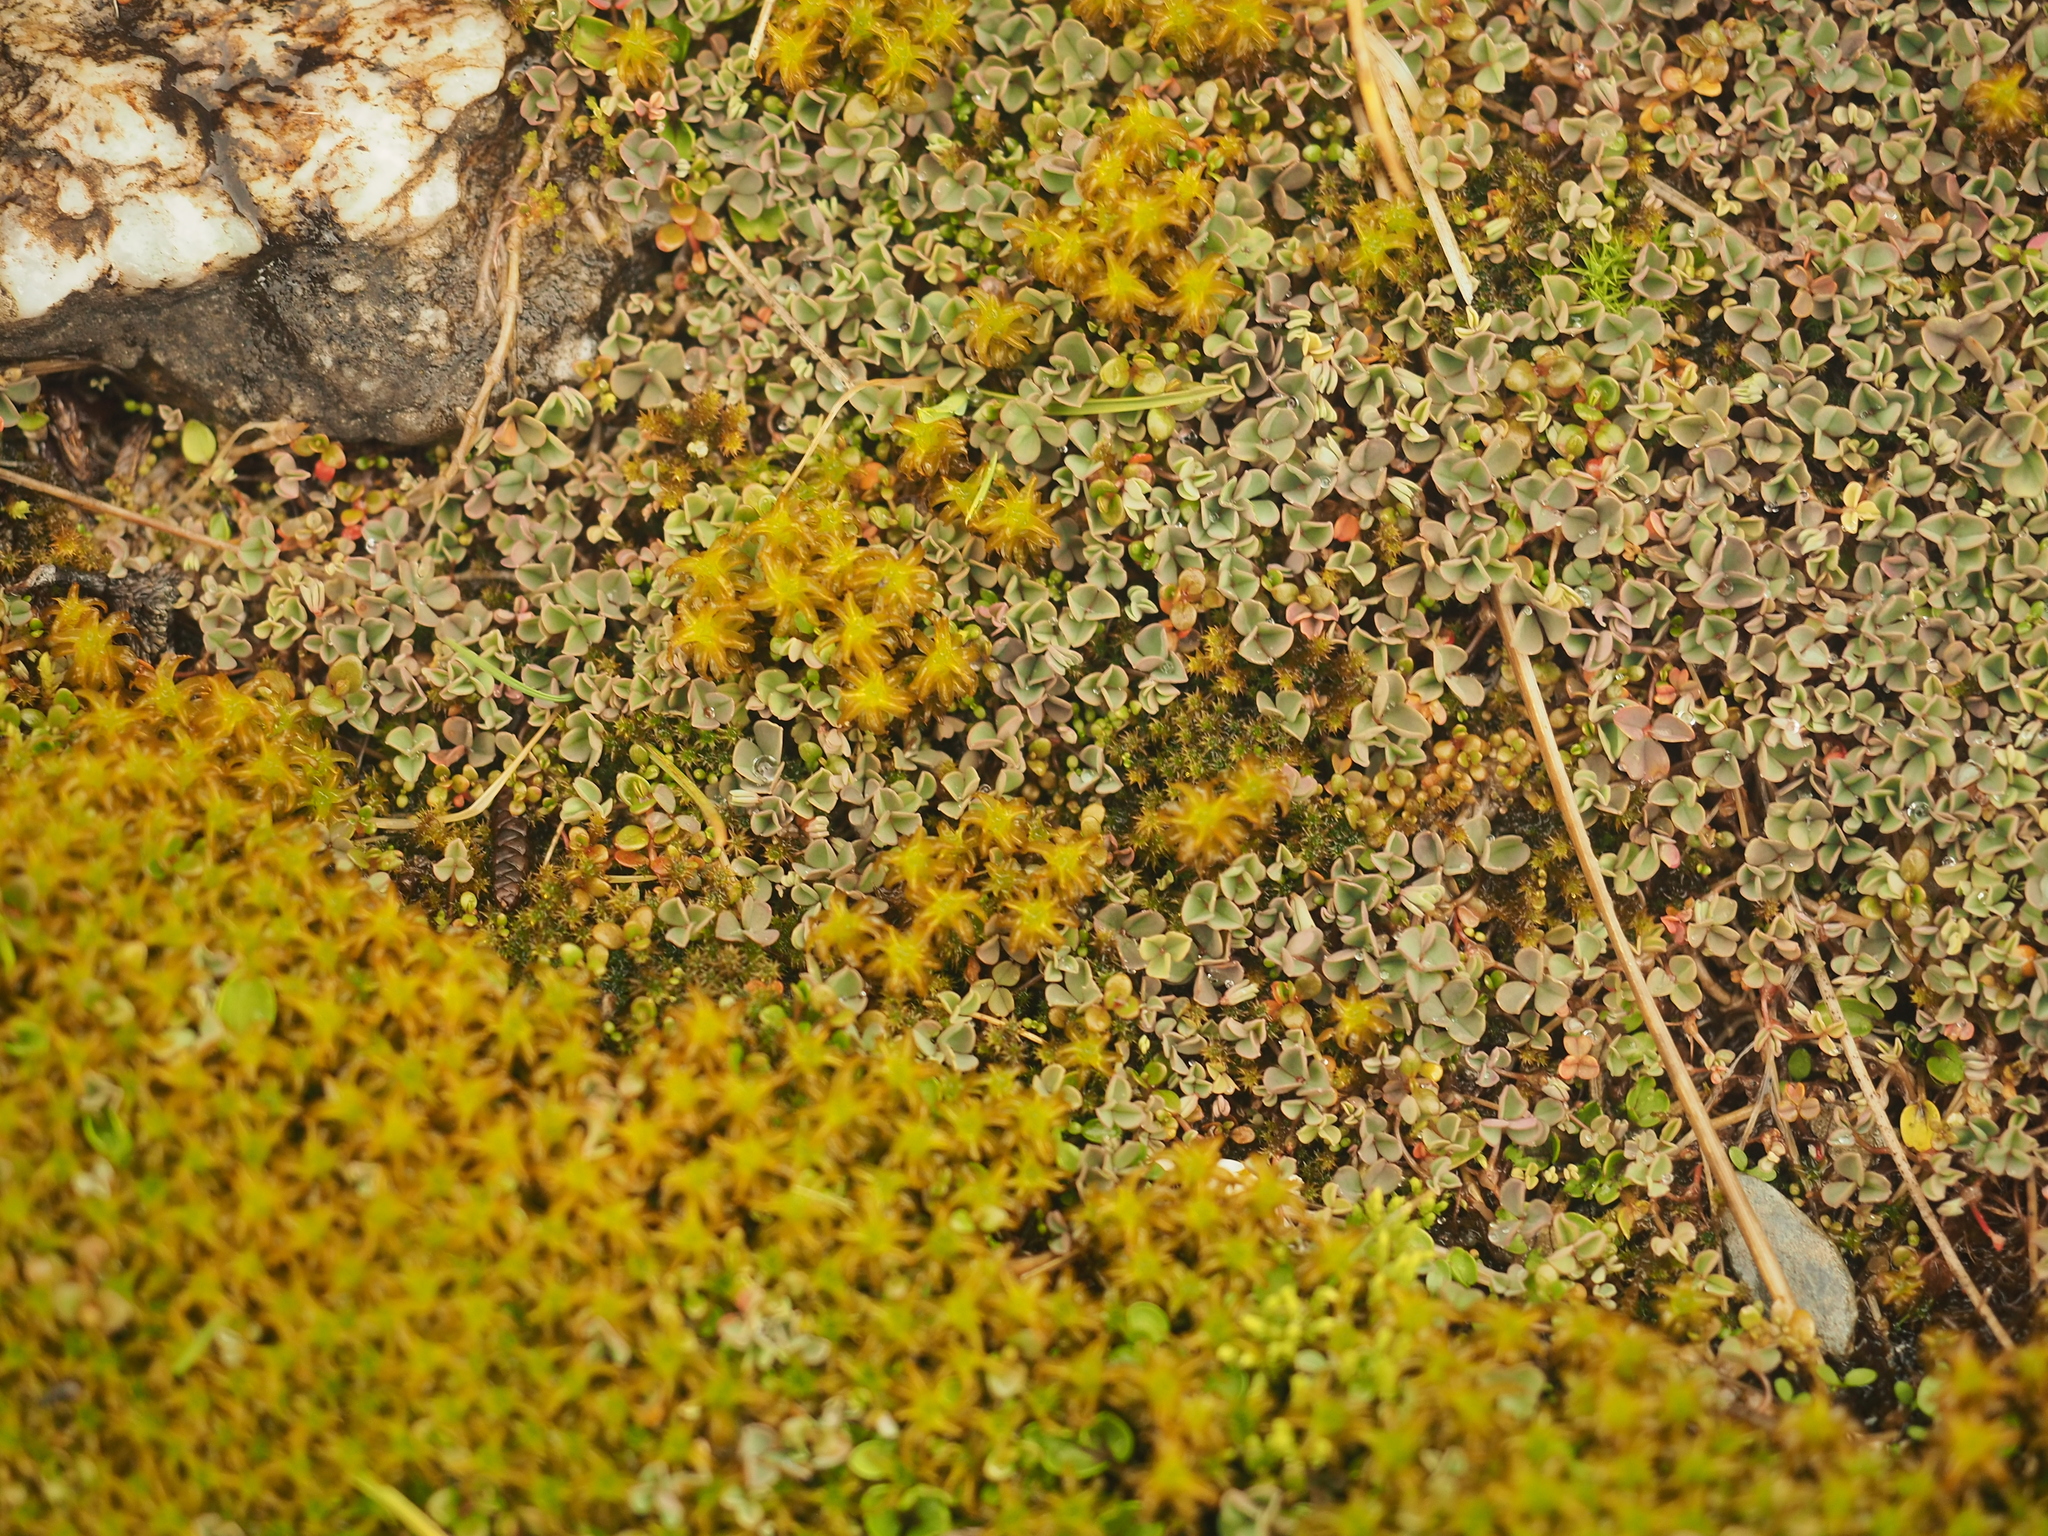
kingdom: Plantae
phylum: Tracheophyta
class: Magnoliopsida
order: Oxalidales
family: Oxalidaceae
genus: Oxalis
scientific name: Oxalis magellanica
